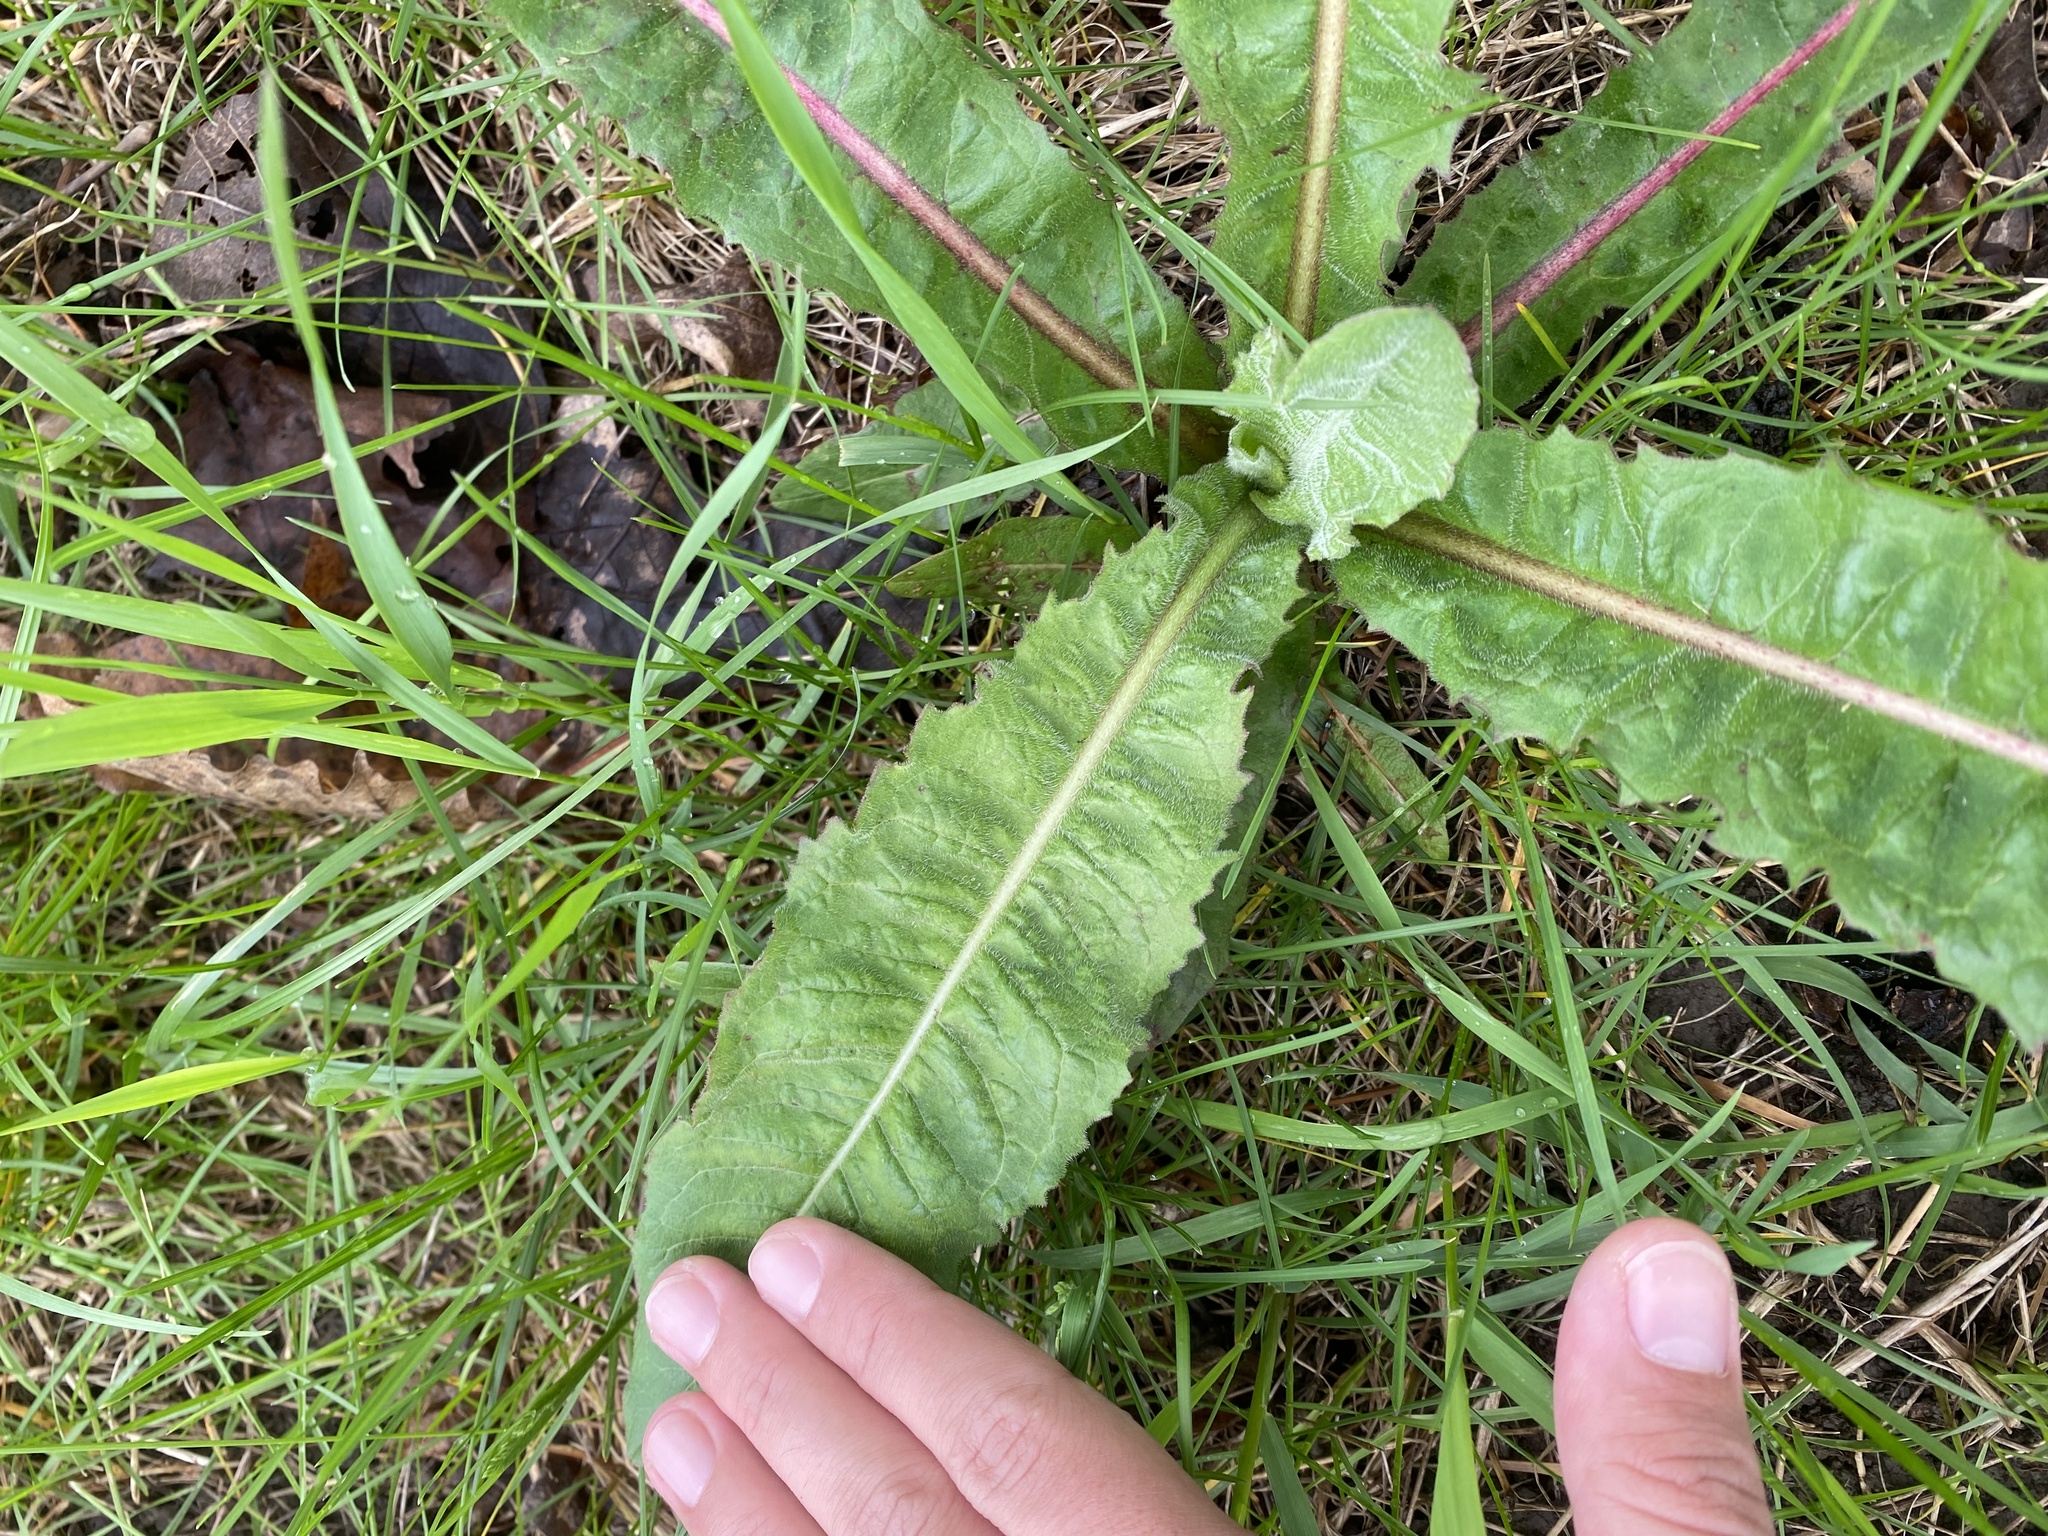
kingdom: Plantae
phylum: Tracheophyta
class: Magnoliopsida
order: Asterales
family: Asteraceae
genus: Cichorium
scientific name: Cichorium intybus
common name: Chicory
